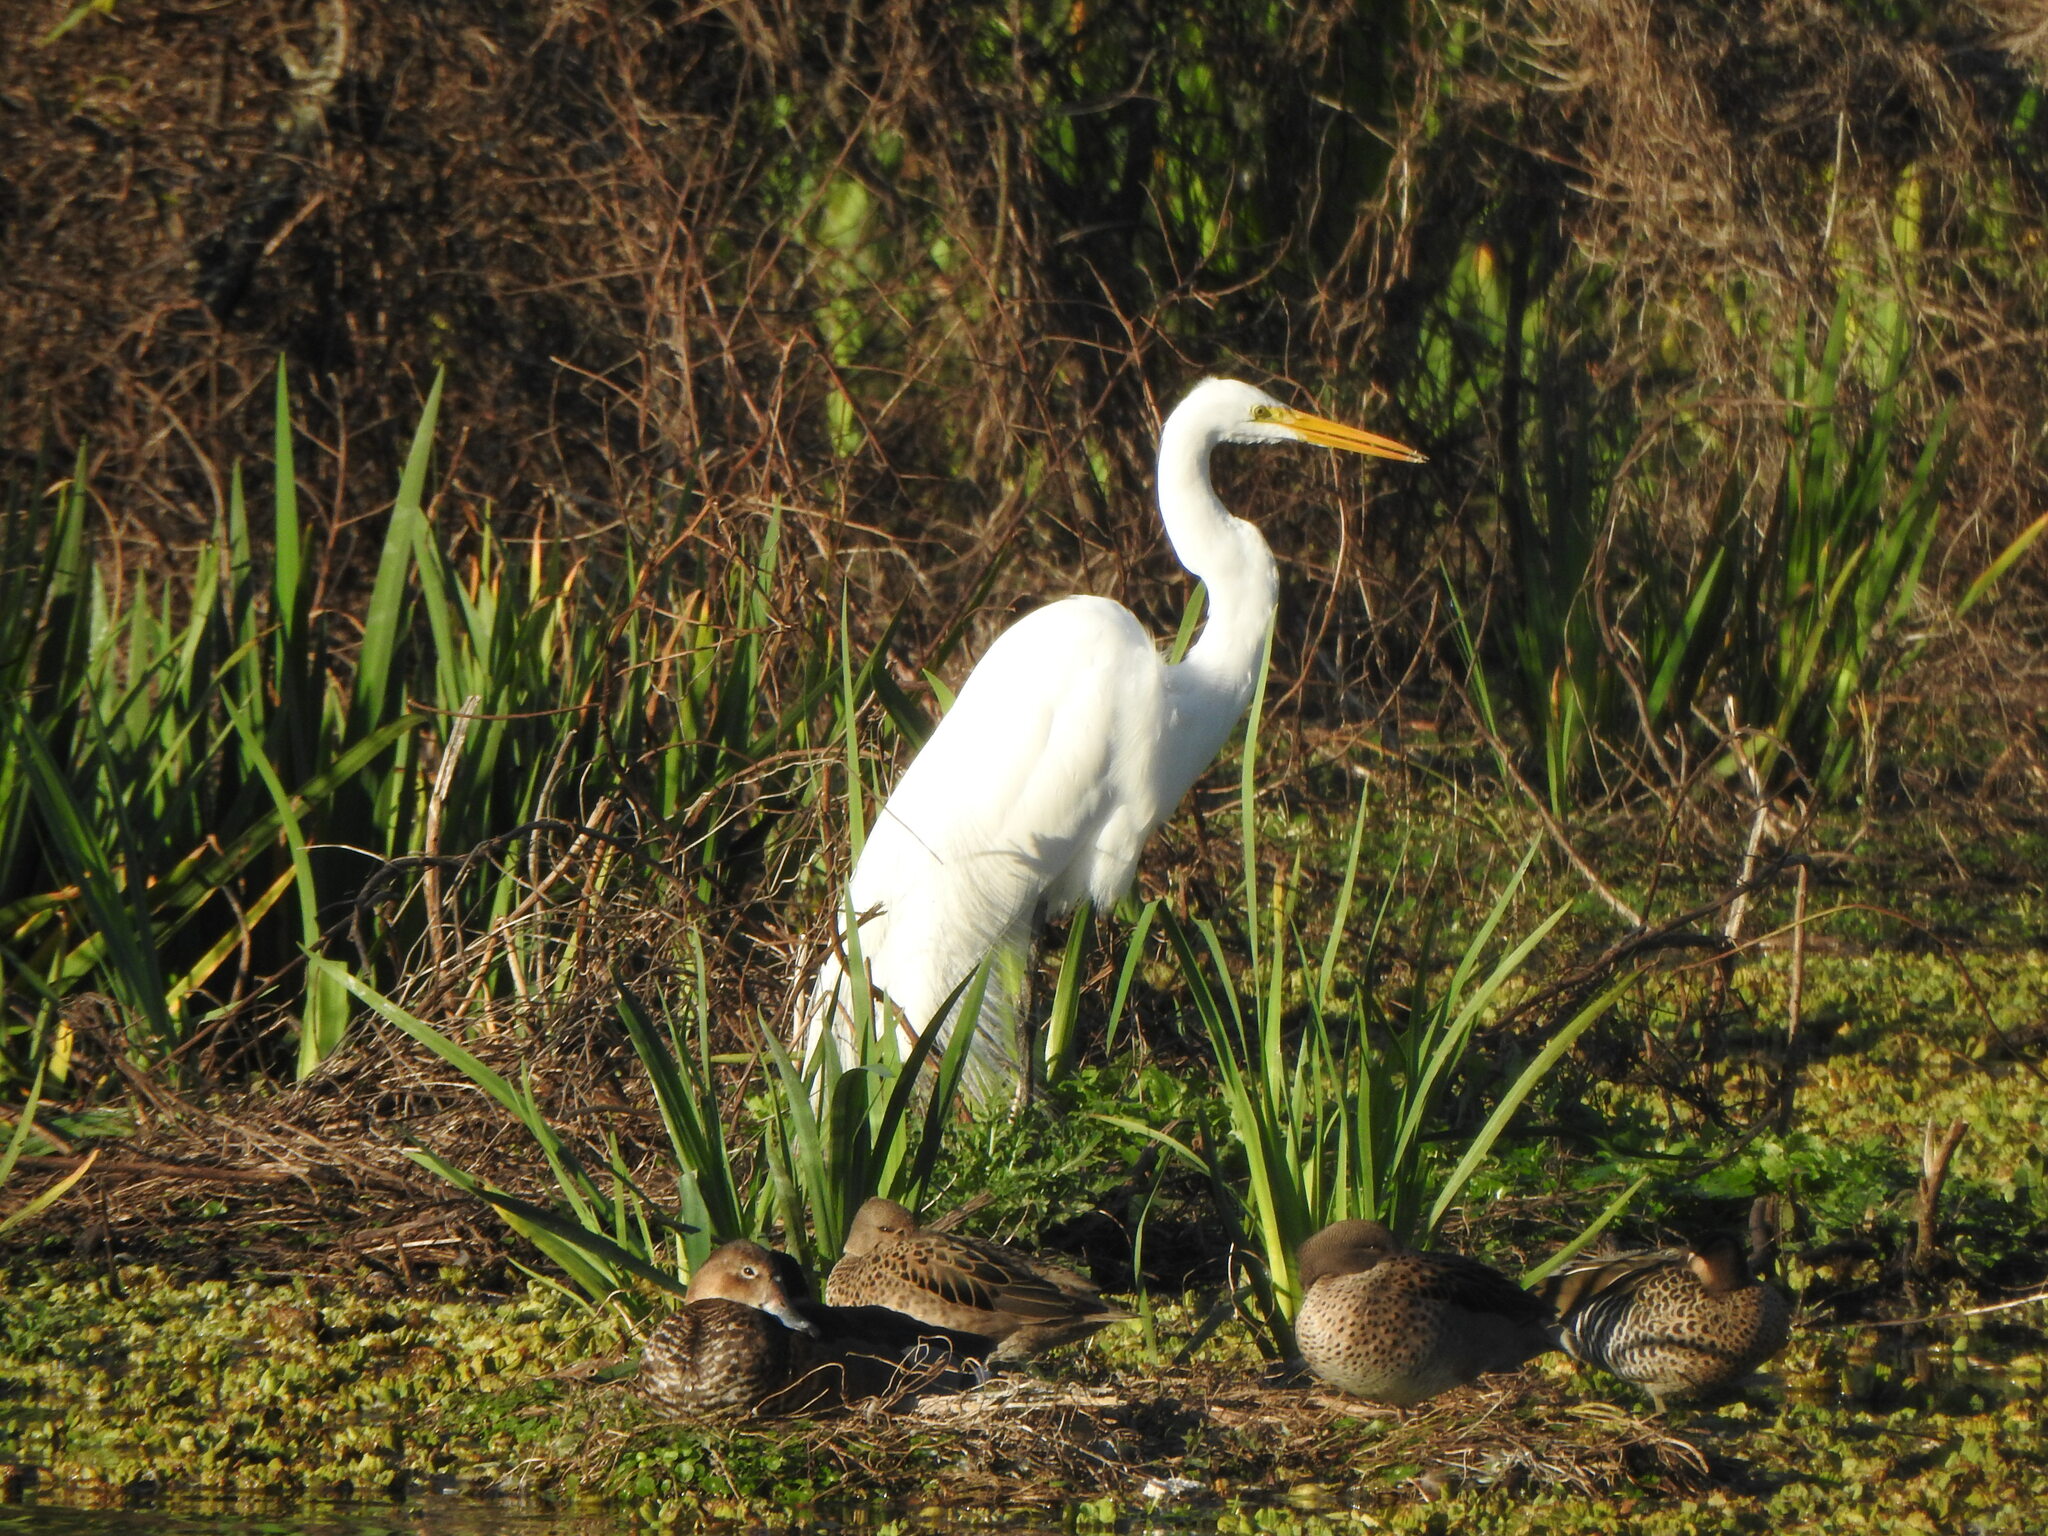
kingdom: Animalia
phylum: Chordata
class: Aves
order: Pelecaniformes
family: Ardeidae
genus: Ardea
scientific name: Ardea alba
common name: Great egret
